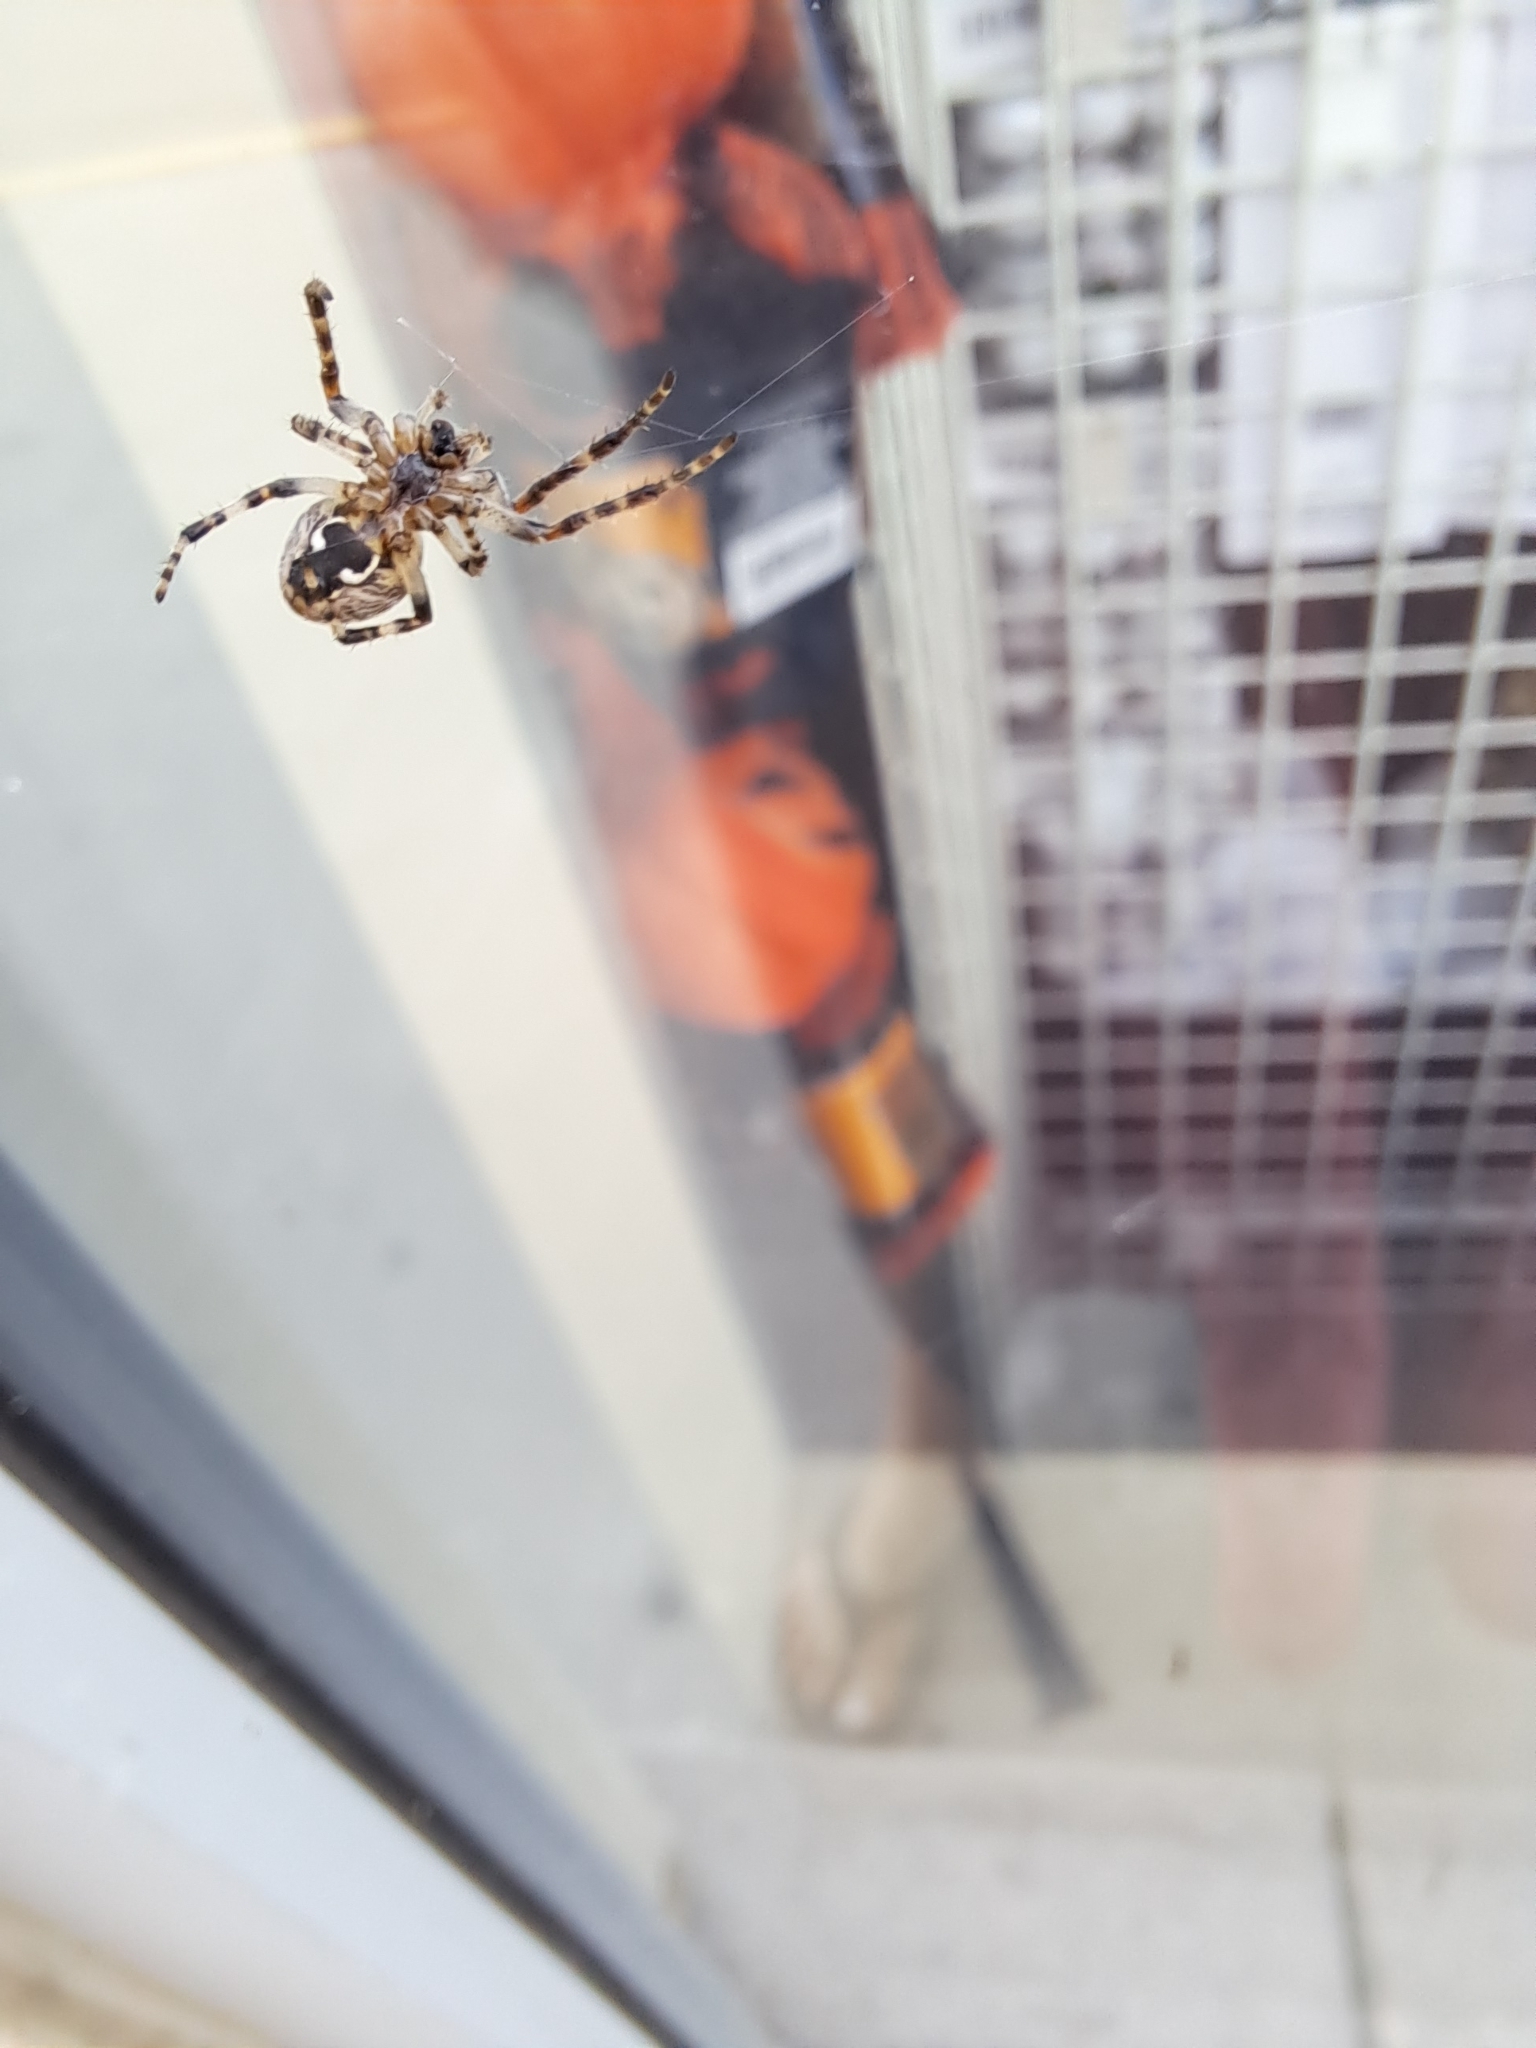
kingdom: Animalia
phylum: Arthropoda
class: Arachnida
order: Araneae
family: Araneidae
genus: Larinioides
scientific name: Larinioides sclopetarius
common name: Bridge orbweaver
